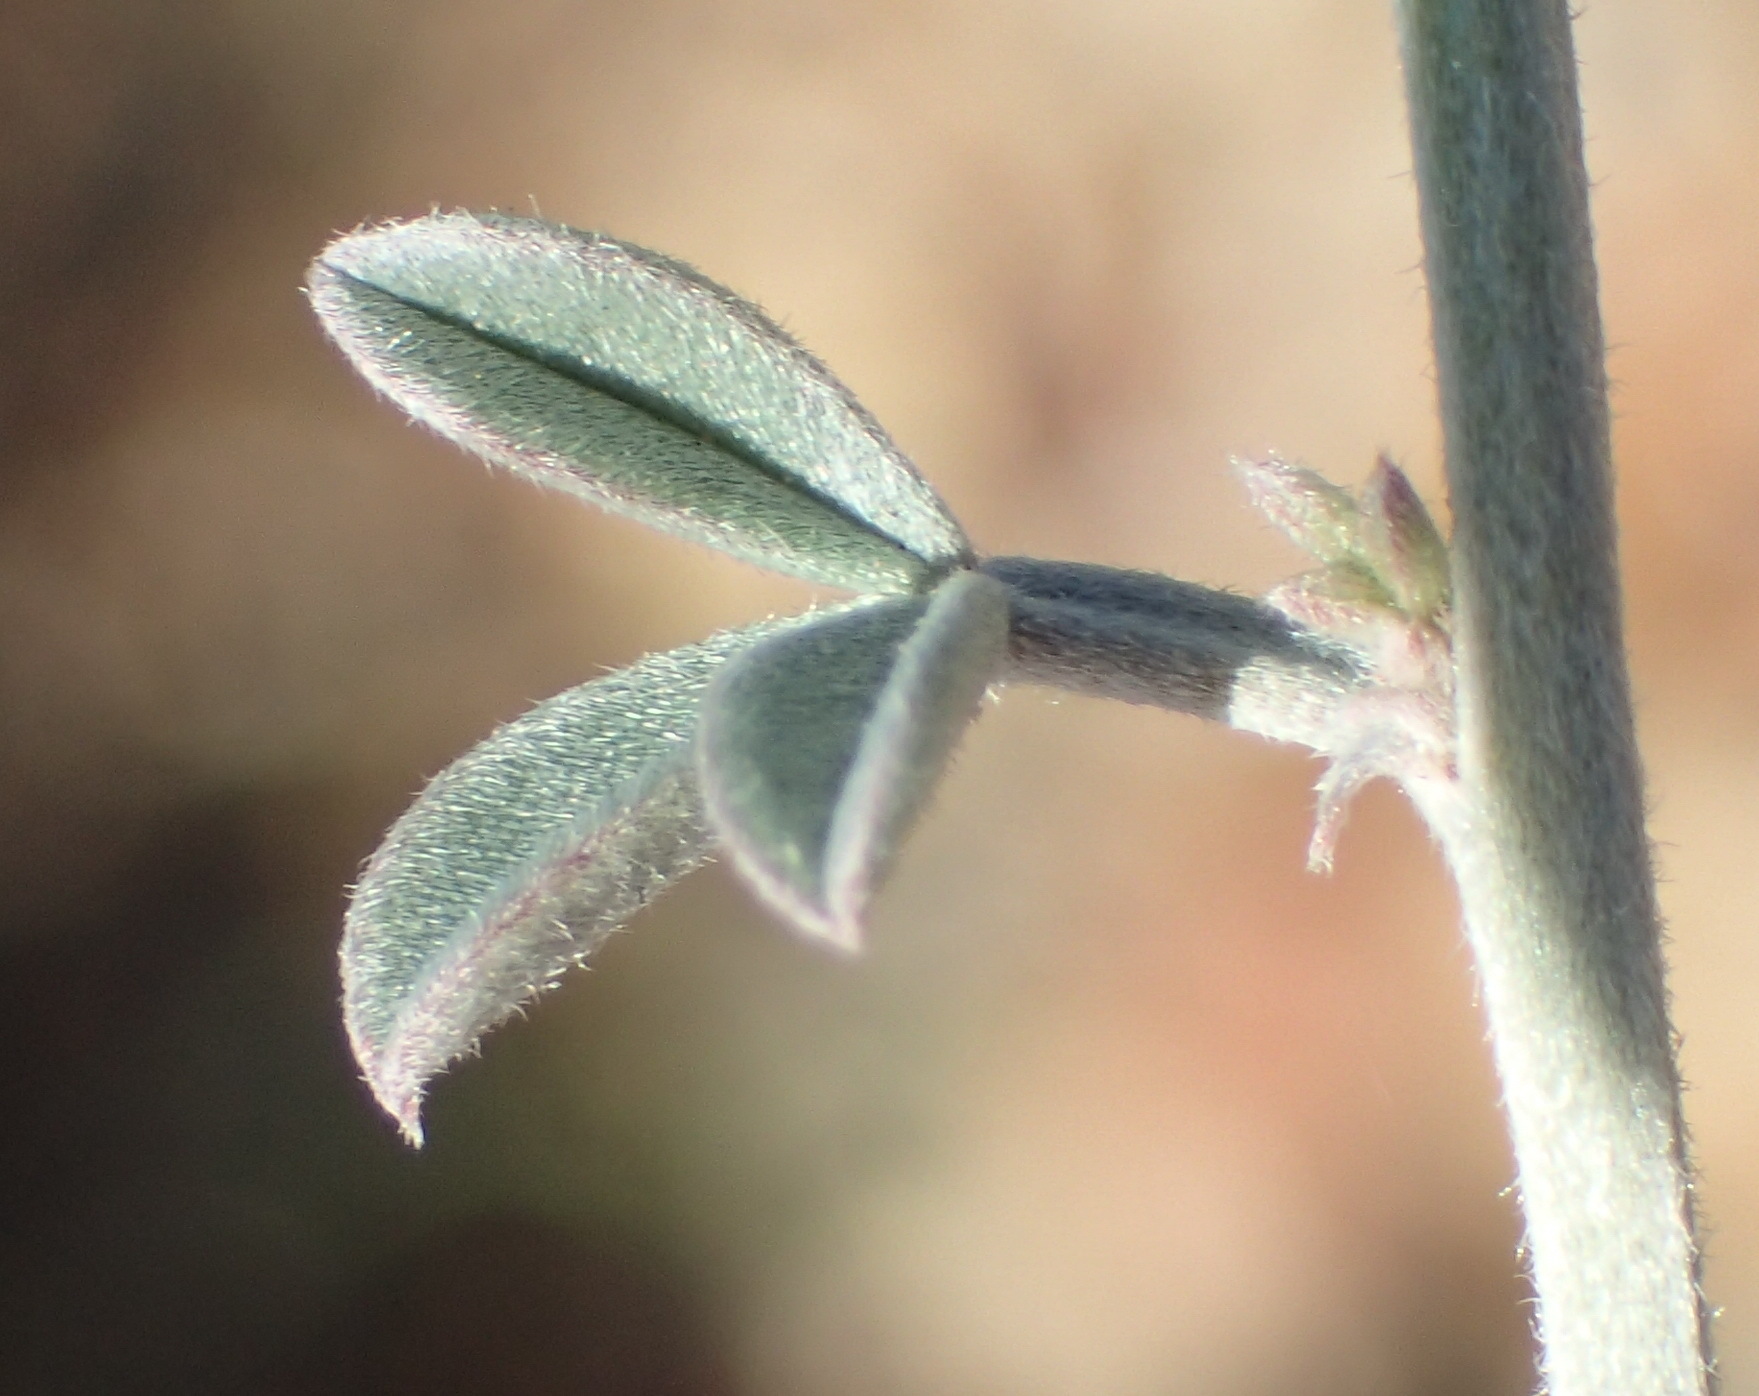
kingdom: Plantae
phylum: Tracheophyta
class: Magnoliopsida
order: Fabales
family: Fabaceae
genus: Indigofera
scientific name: Indigofera complicata
